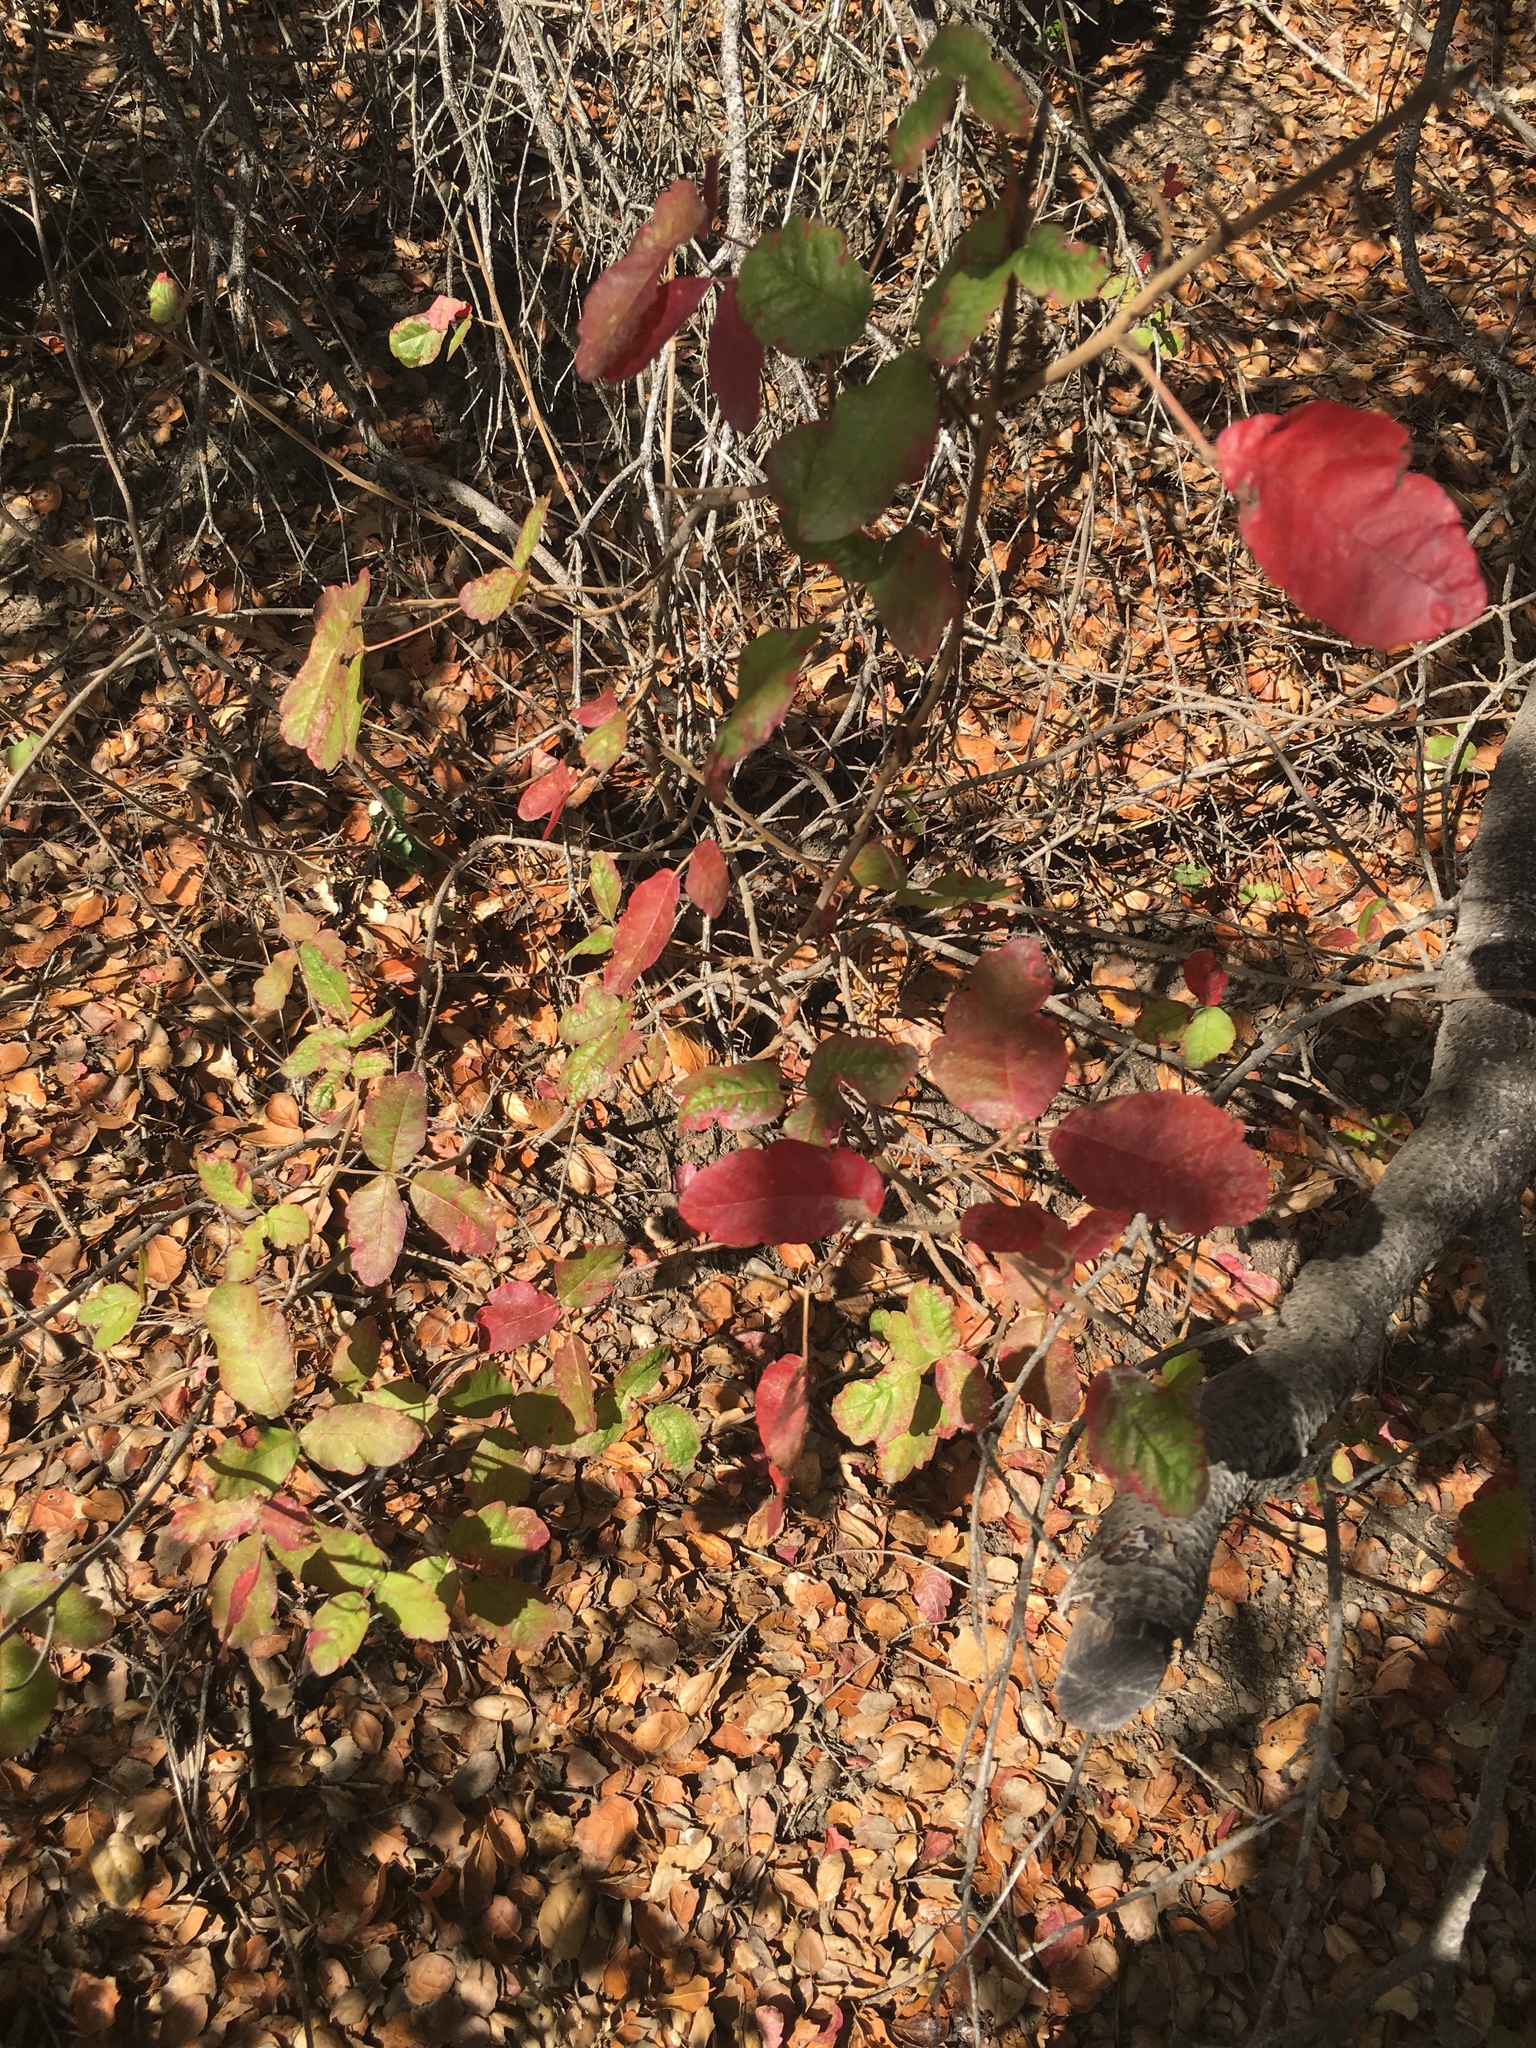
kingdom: Plantae
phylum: Tracheophyta
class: Magnoliopsida
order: Sapindales
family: Anacardiaceae
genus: Toxicodendron
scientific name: Toxicodendron diversilobum
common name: Pacific poison-oak
